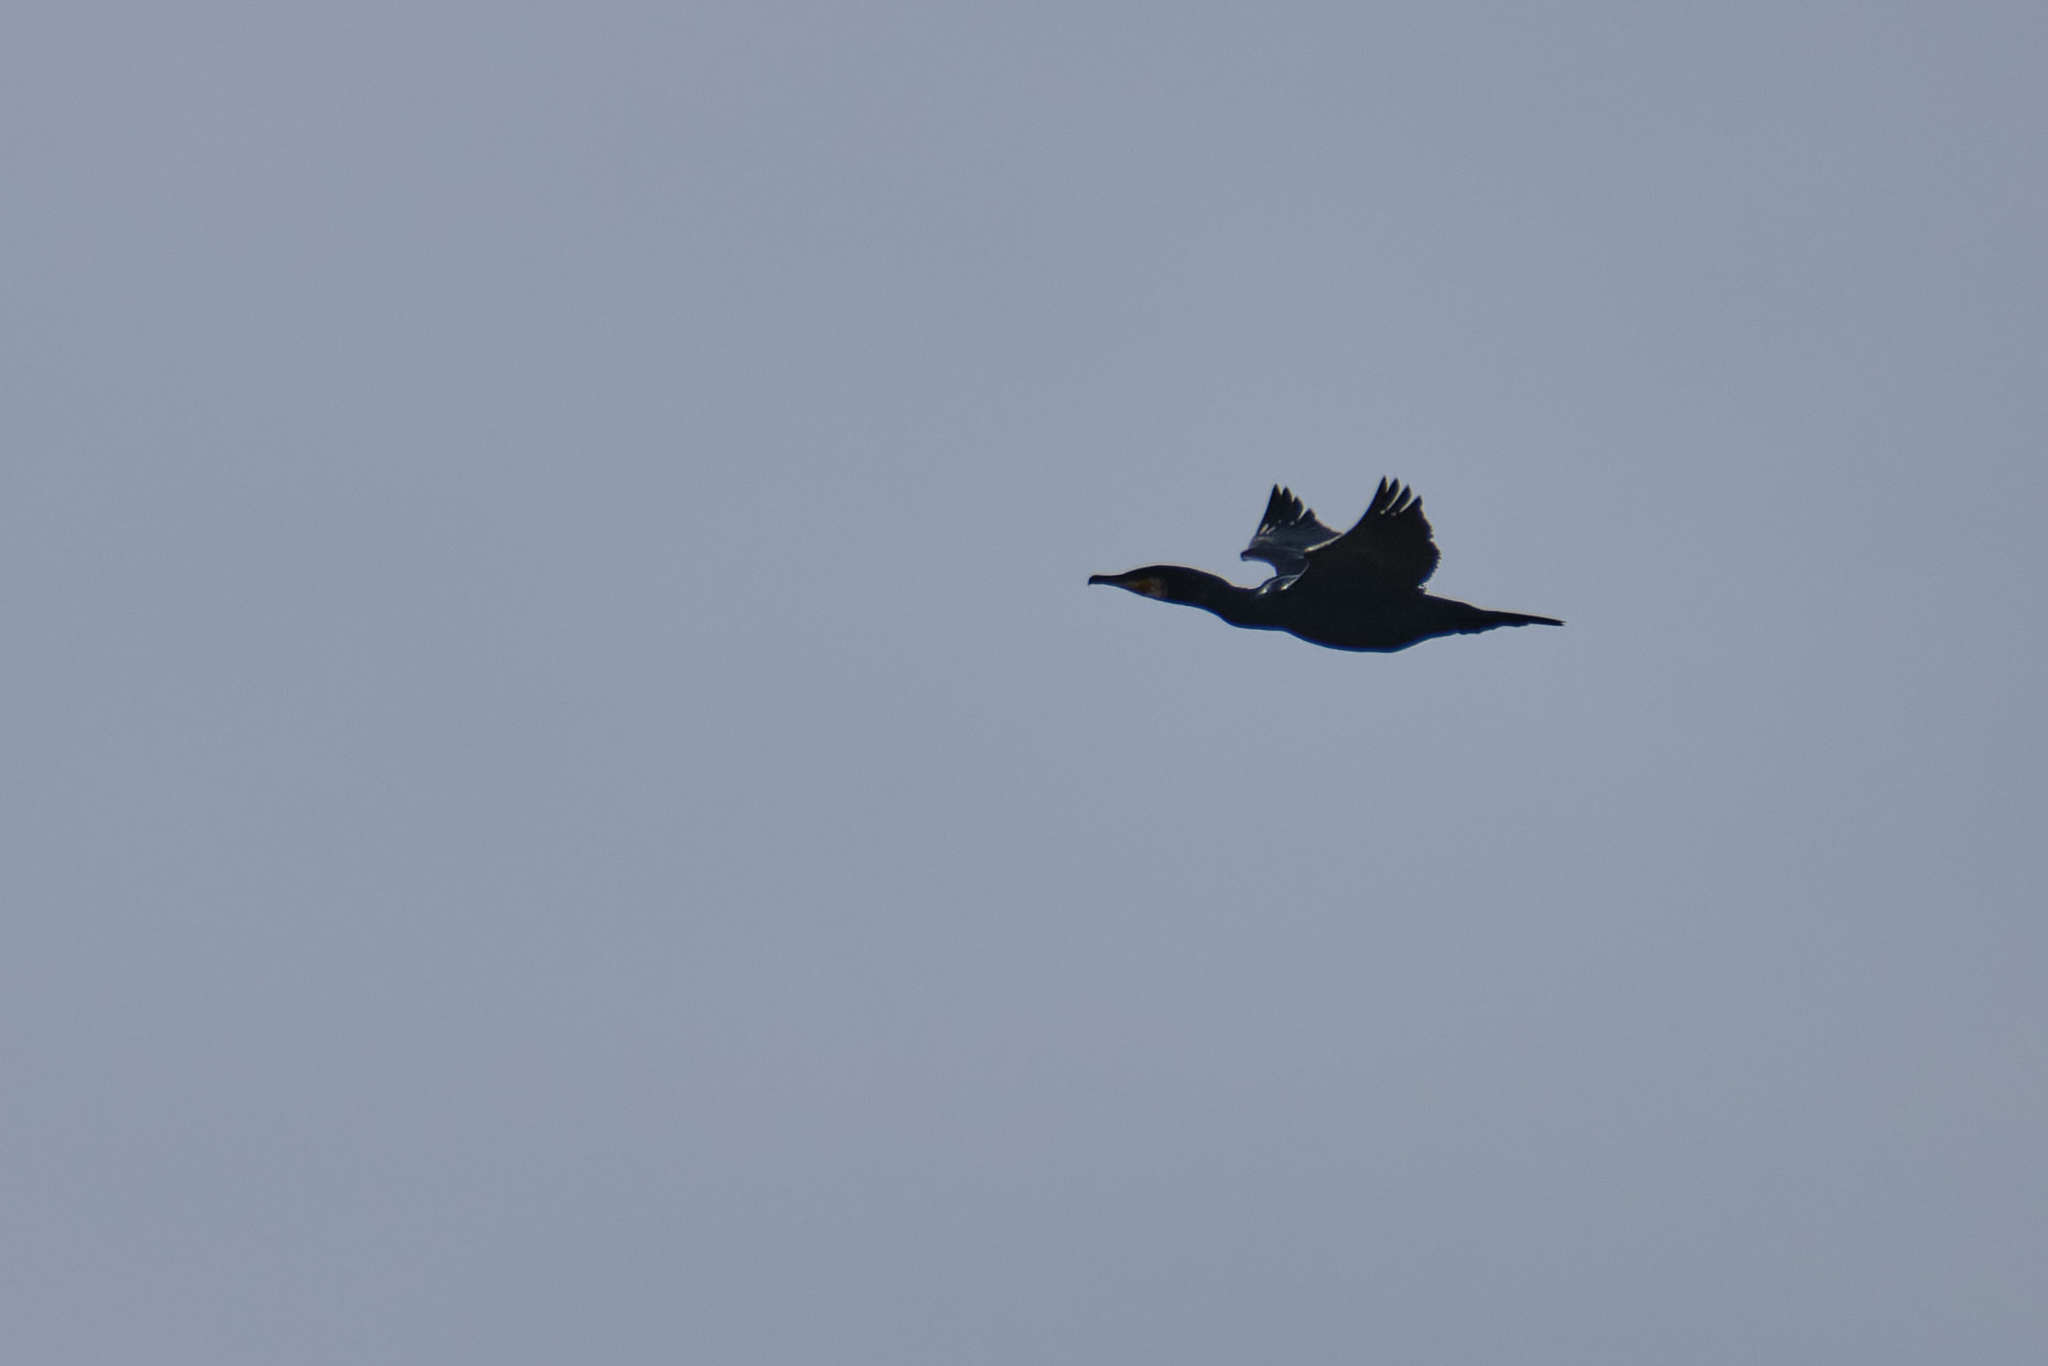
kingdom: Animalia
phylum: Chordata
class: Aves
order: Suliformes
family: Phalacrocoracidae
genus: Phalacrocorax
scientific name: Phalacrocorax carbo
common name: Great cormorant
